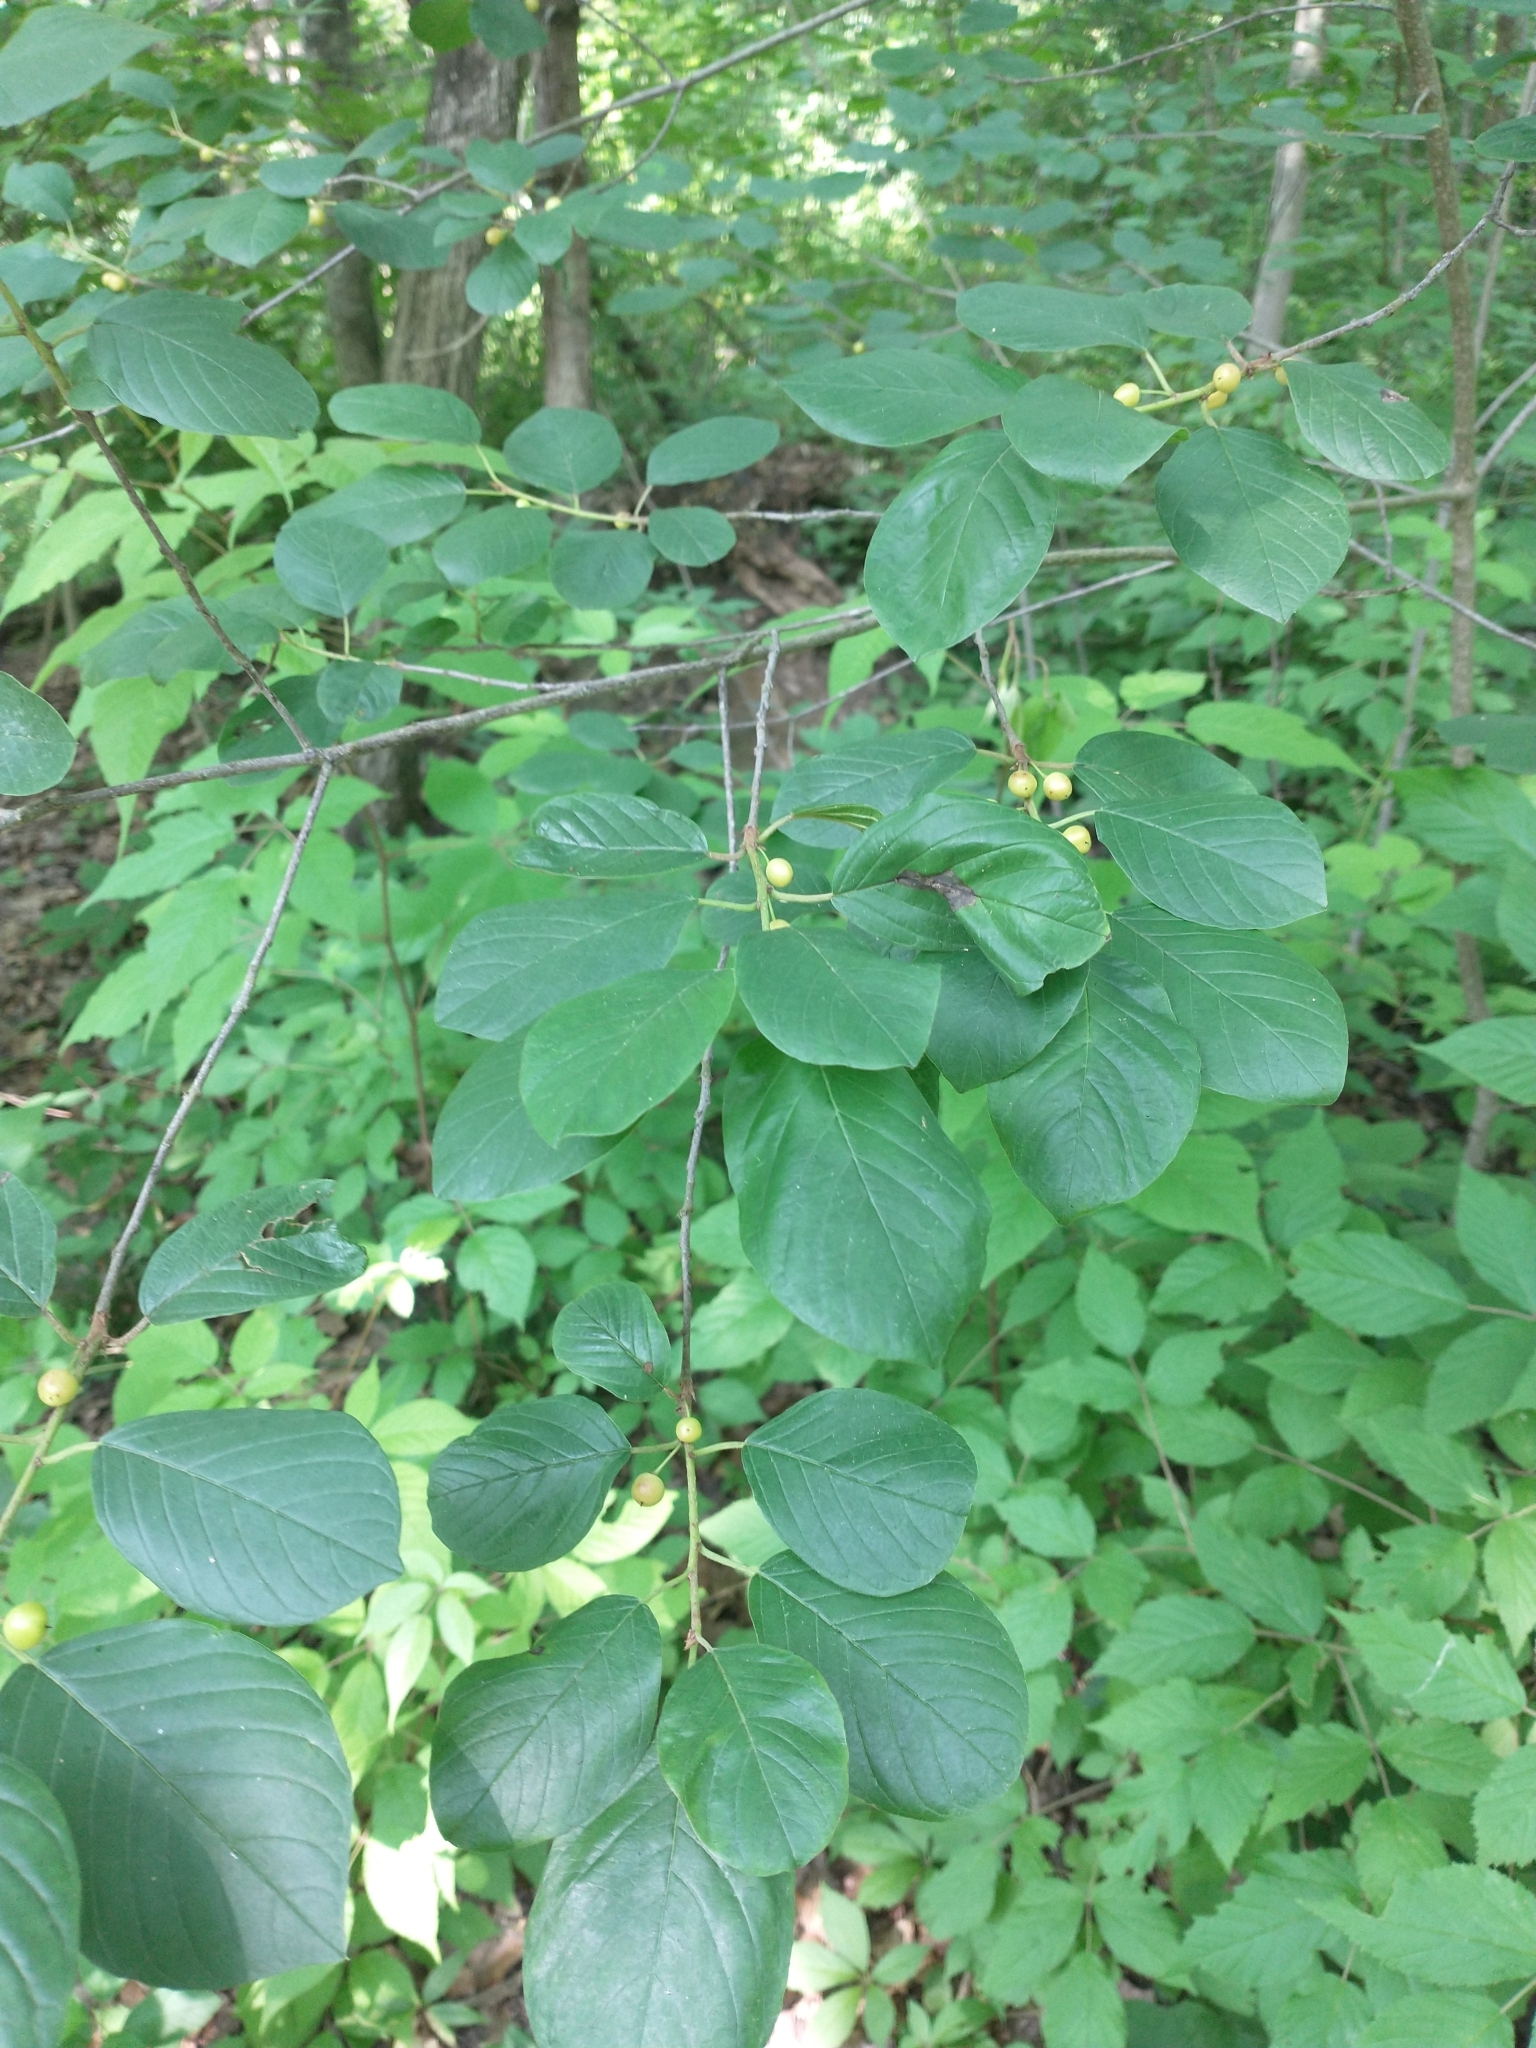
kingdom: Plantae
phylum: Tracheophyta
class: Magnoliopsida
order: Rosales
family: Rhamnaceae
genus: Frangula
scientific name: Frangula alnus
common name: Alder buckthorn
